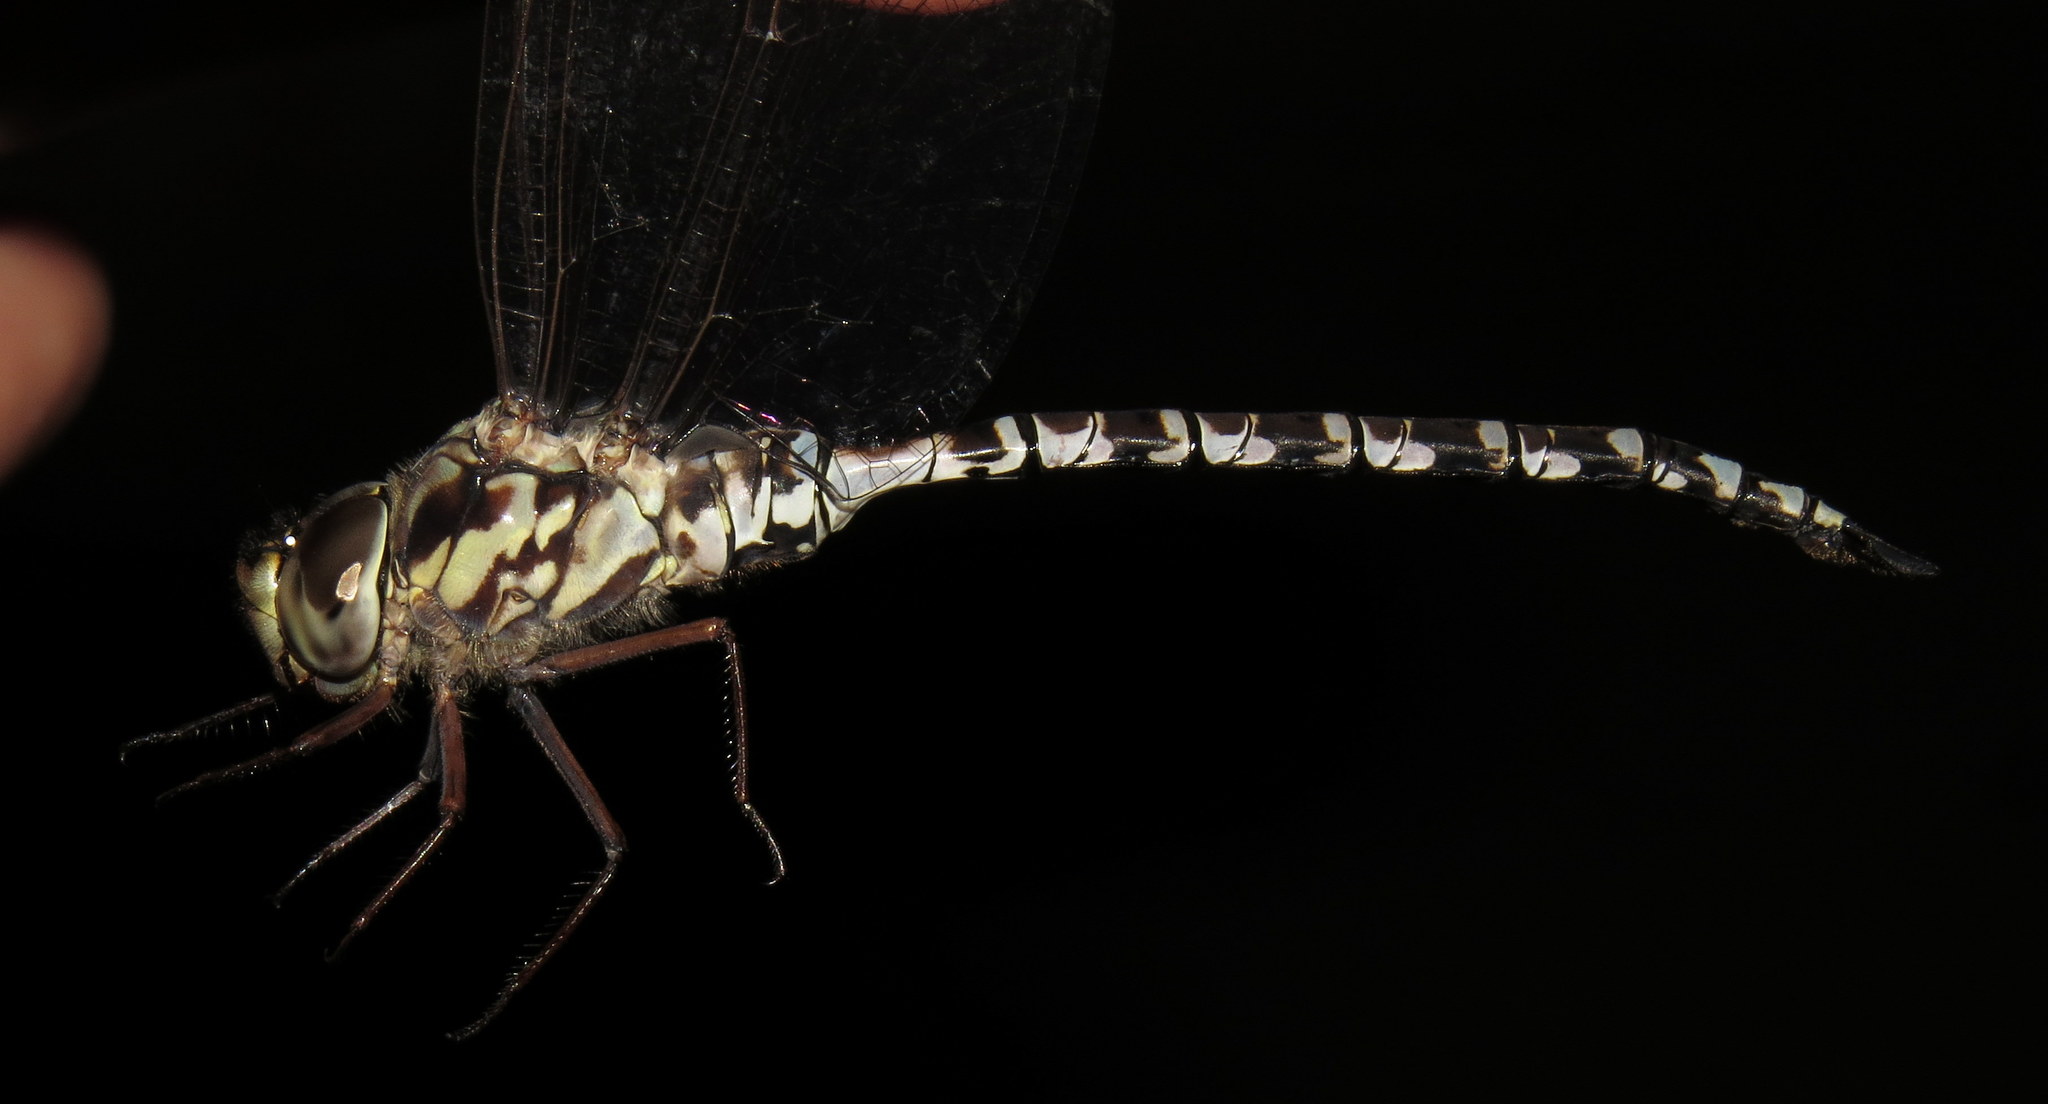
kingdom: Animalia
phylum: Arthropoda
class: Insecta
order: Odonata
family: Aeshnidae
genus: Aeshna
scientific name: Aeshna clepsydra
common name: Mottled darner
